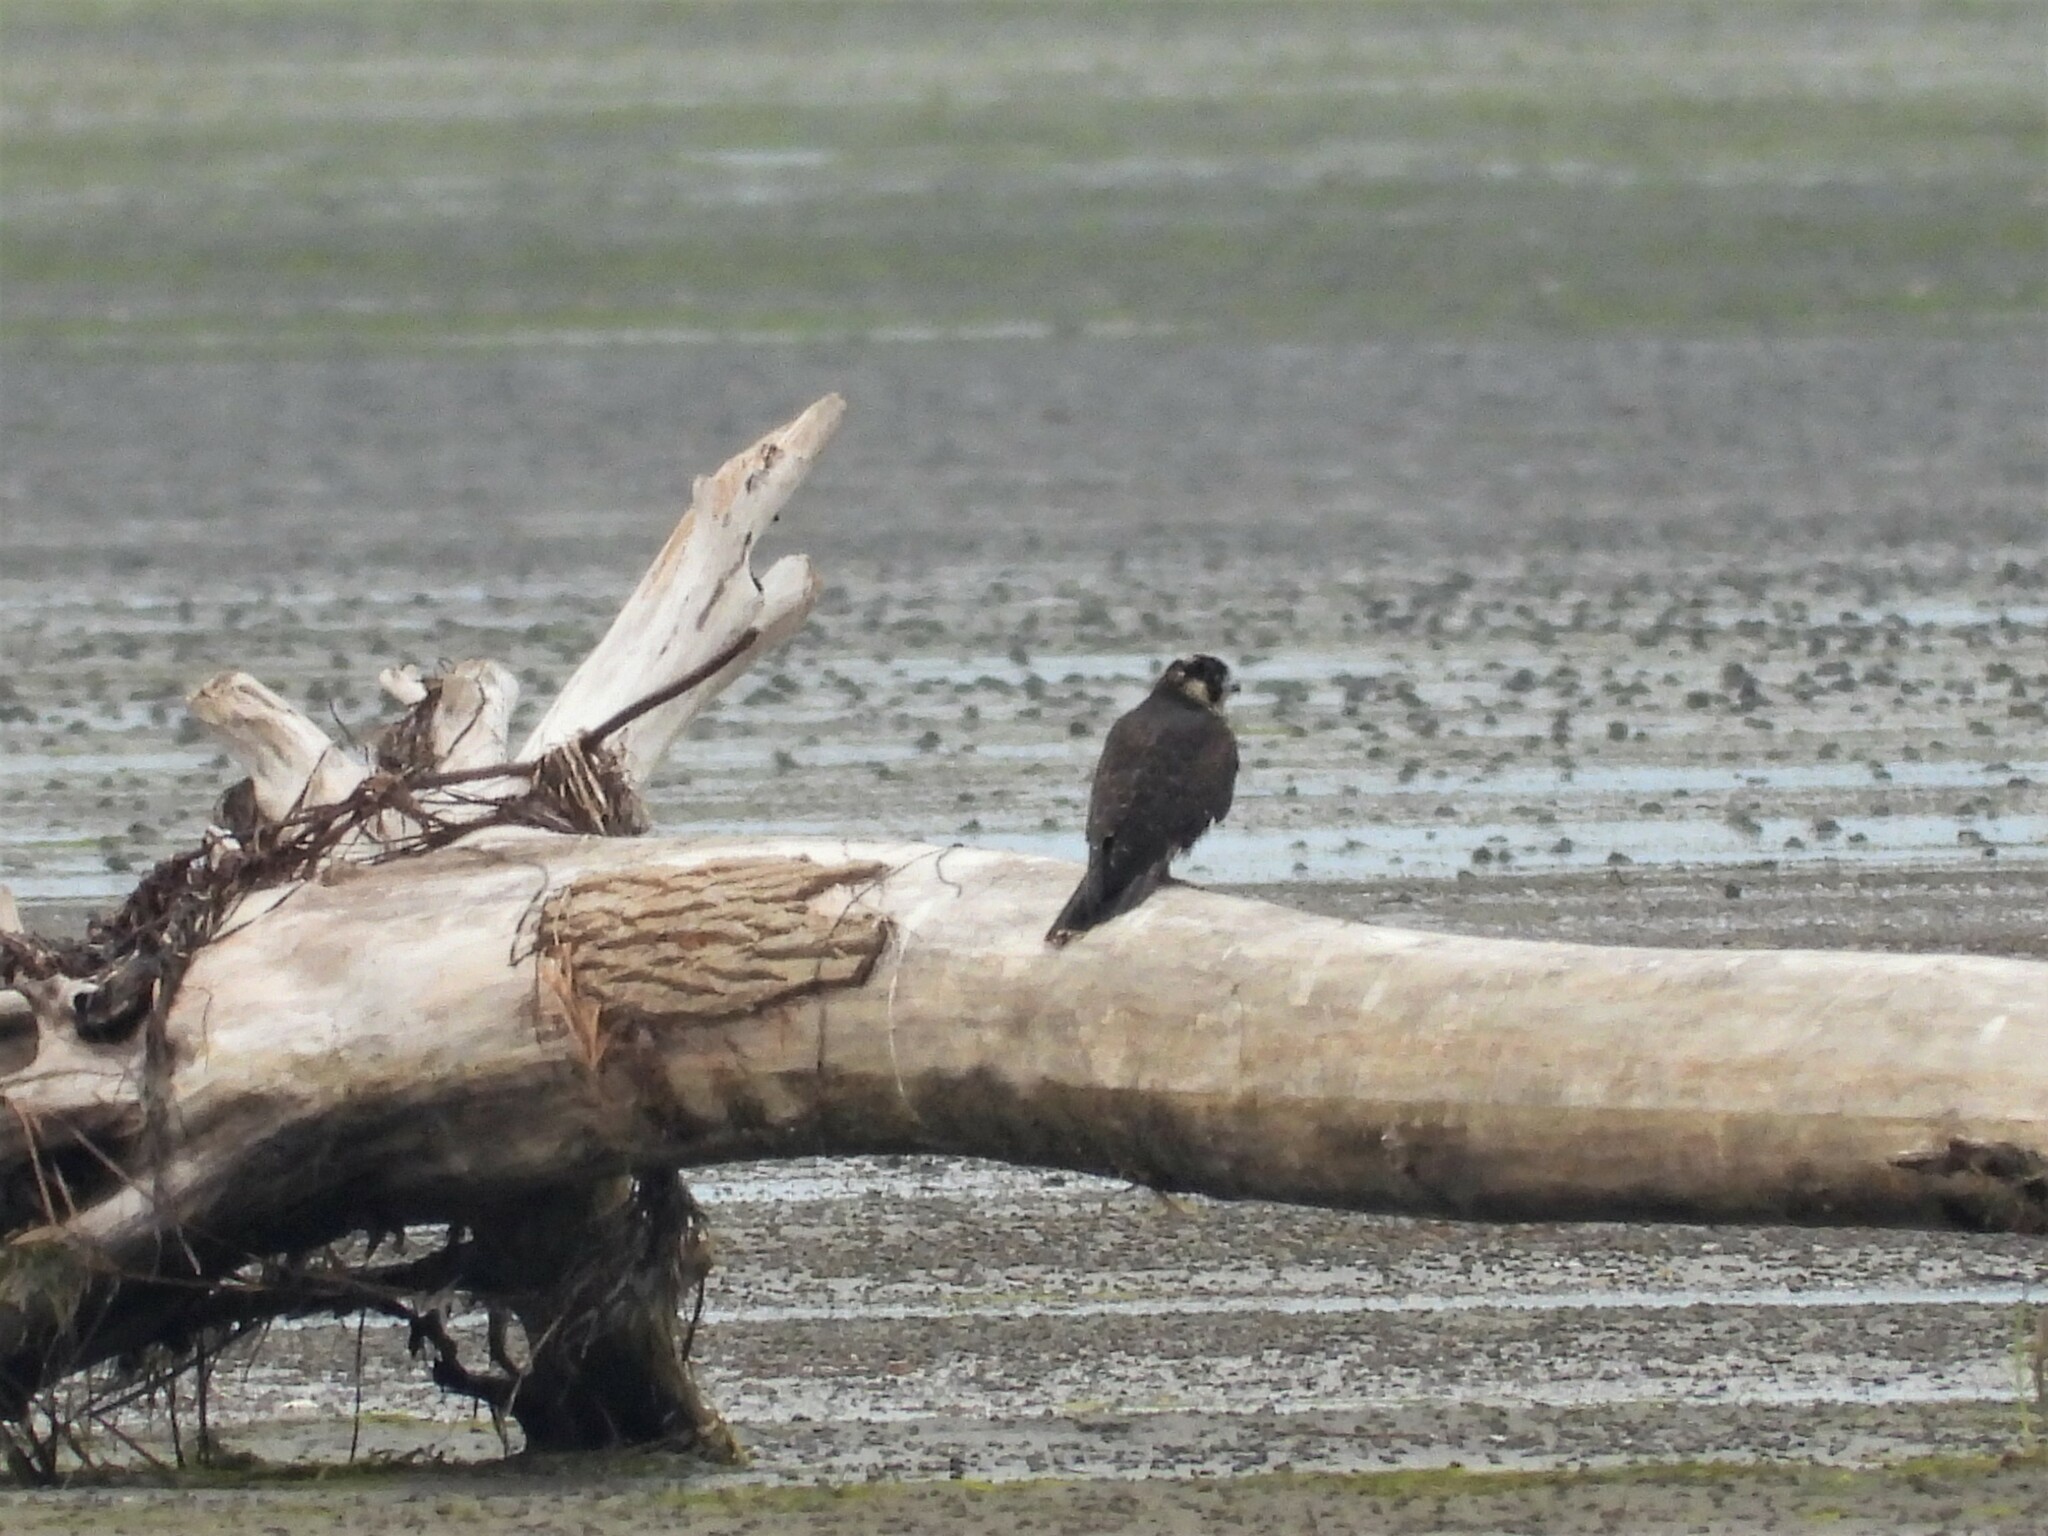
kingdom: Animalia
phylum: Chordata
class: Aves
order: Falconiformes
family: Falconidae
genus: Falco
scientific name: Falco peregrinus
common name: Peregrine falcon
